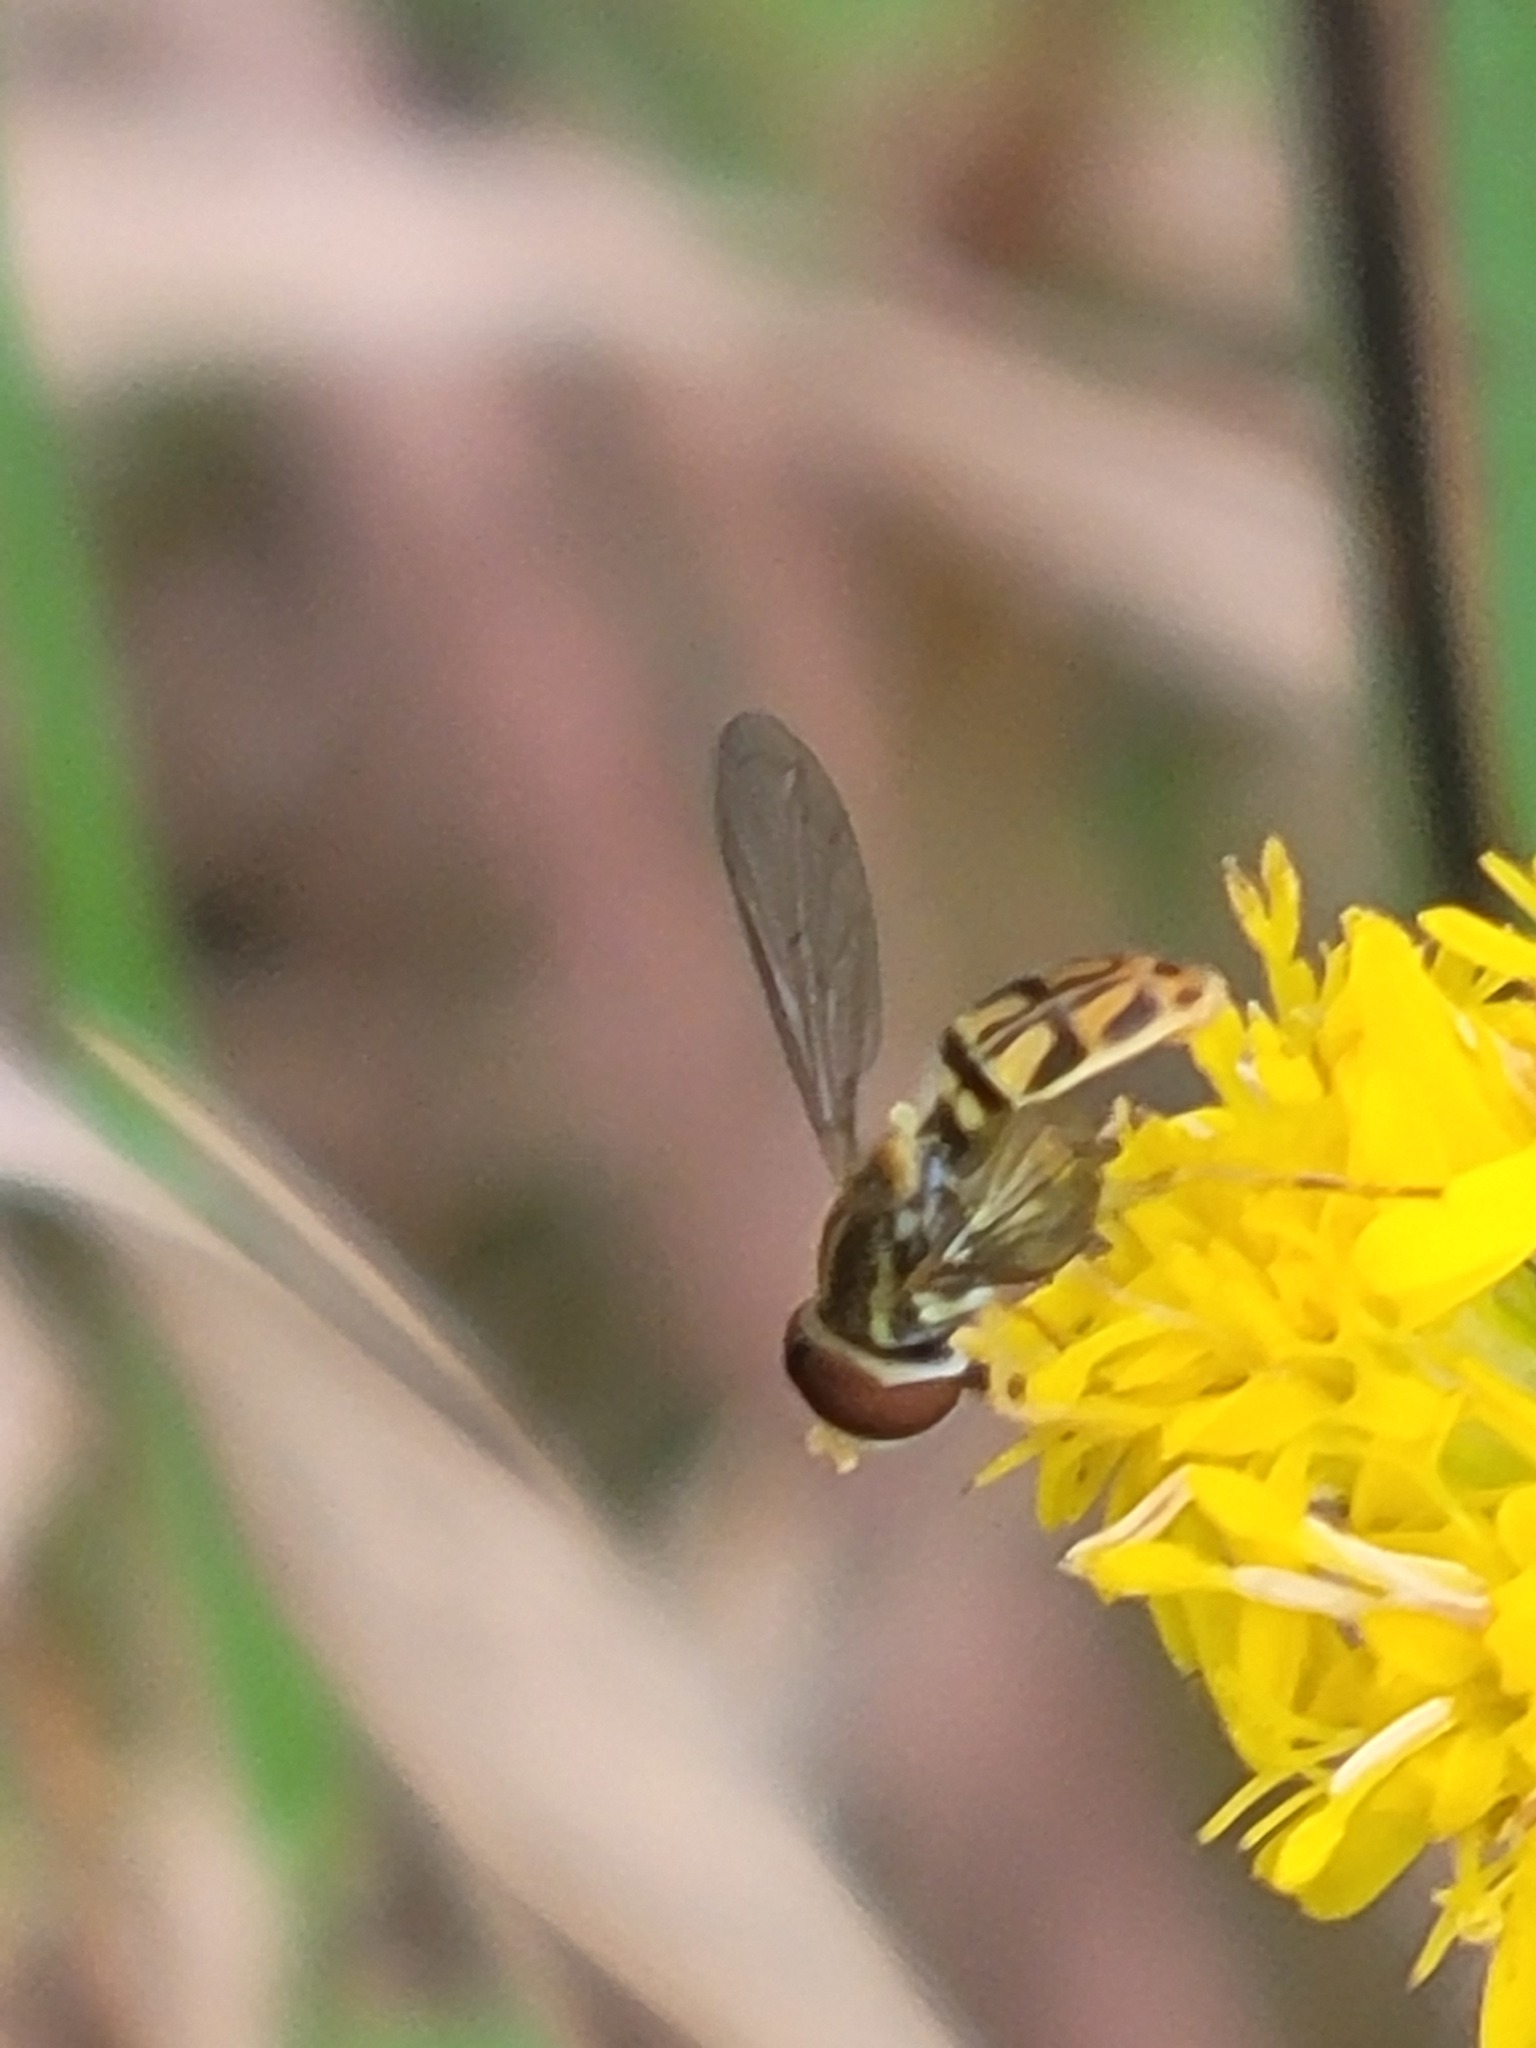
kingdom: Animalia
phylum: Arthropoda
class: Insecta
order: Diptera
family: Syrphidae
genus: Toxomerus
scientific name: Toxomerus marginatus
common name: Syrphid fly
